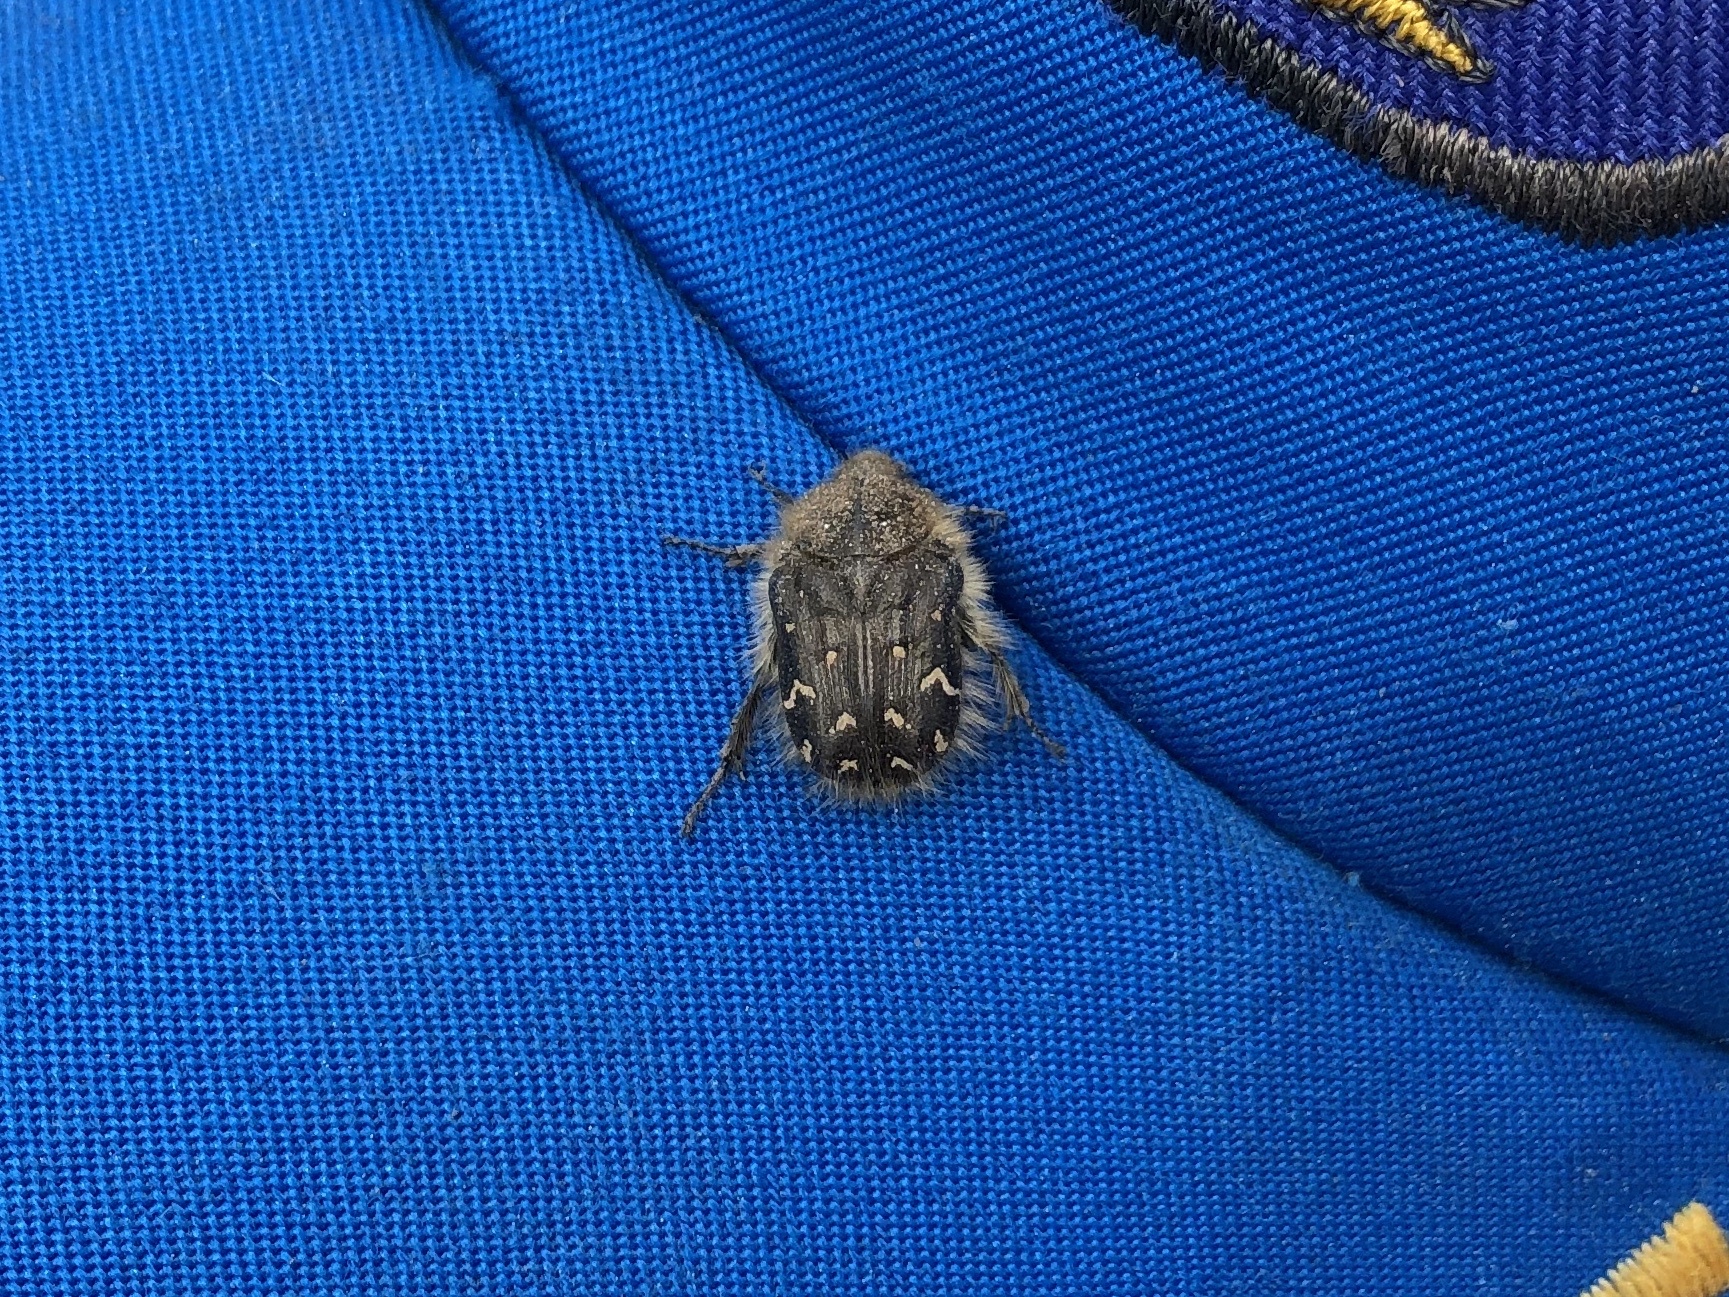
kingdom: Animalia
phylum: Arthropoda
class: Insecta
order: Coleoptera
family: Scarabaeidae
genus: Tropinota
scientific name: Tropinota hirta
